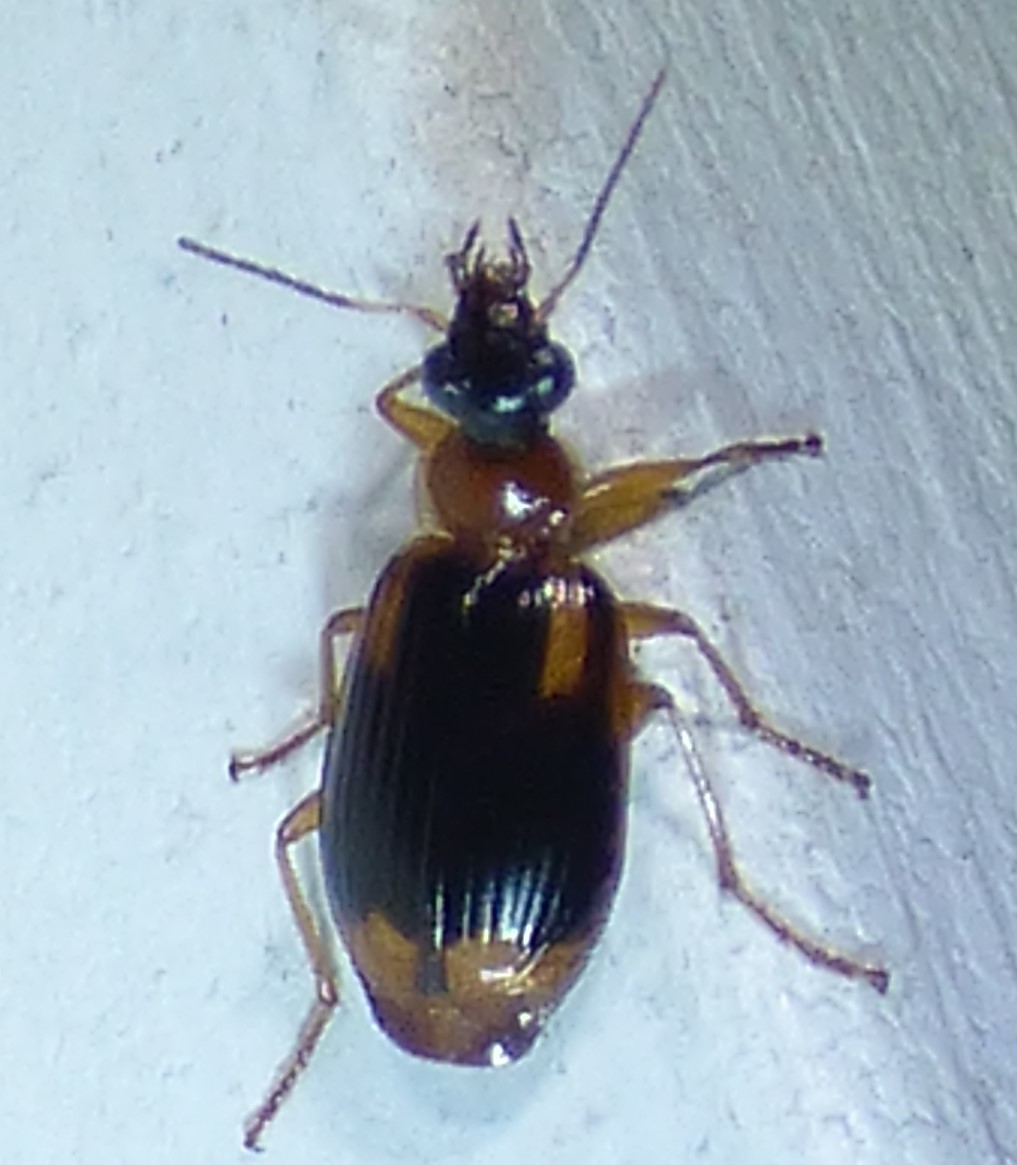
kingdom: Animalia
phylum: Arthropoda
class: Insecta
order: Coleoptera
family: Carabidae
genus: Lebia
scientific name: Lebia analis
